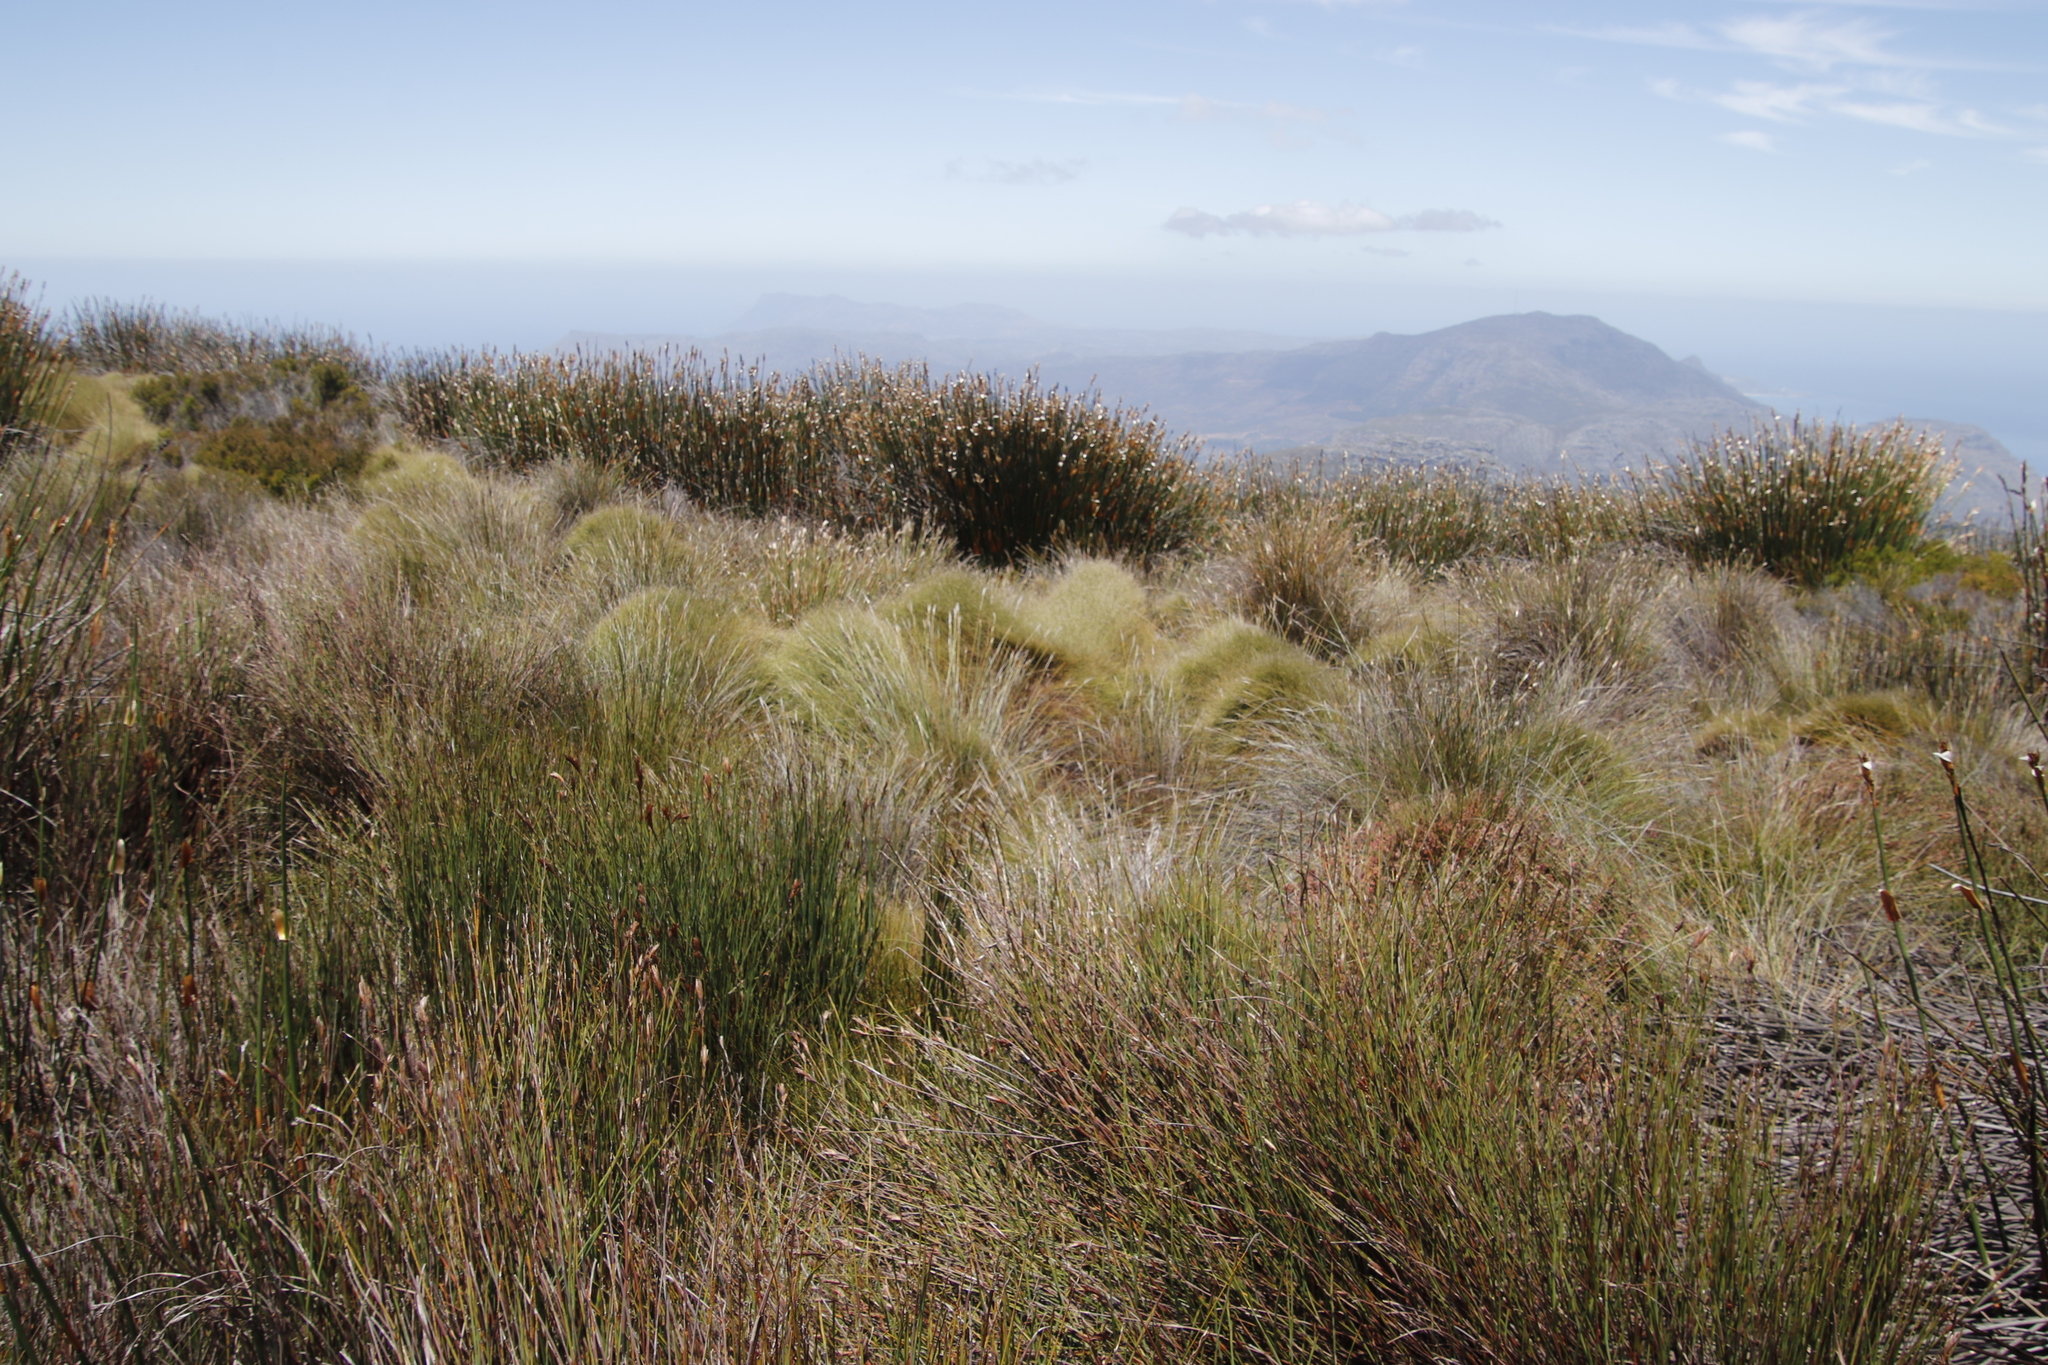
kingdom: Plantae
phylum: Tracheophyta
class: Liliopsida
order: Poales
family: Restionaceae
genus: Elegia
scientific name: Elegia mucronata
